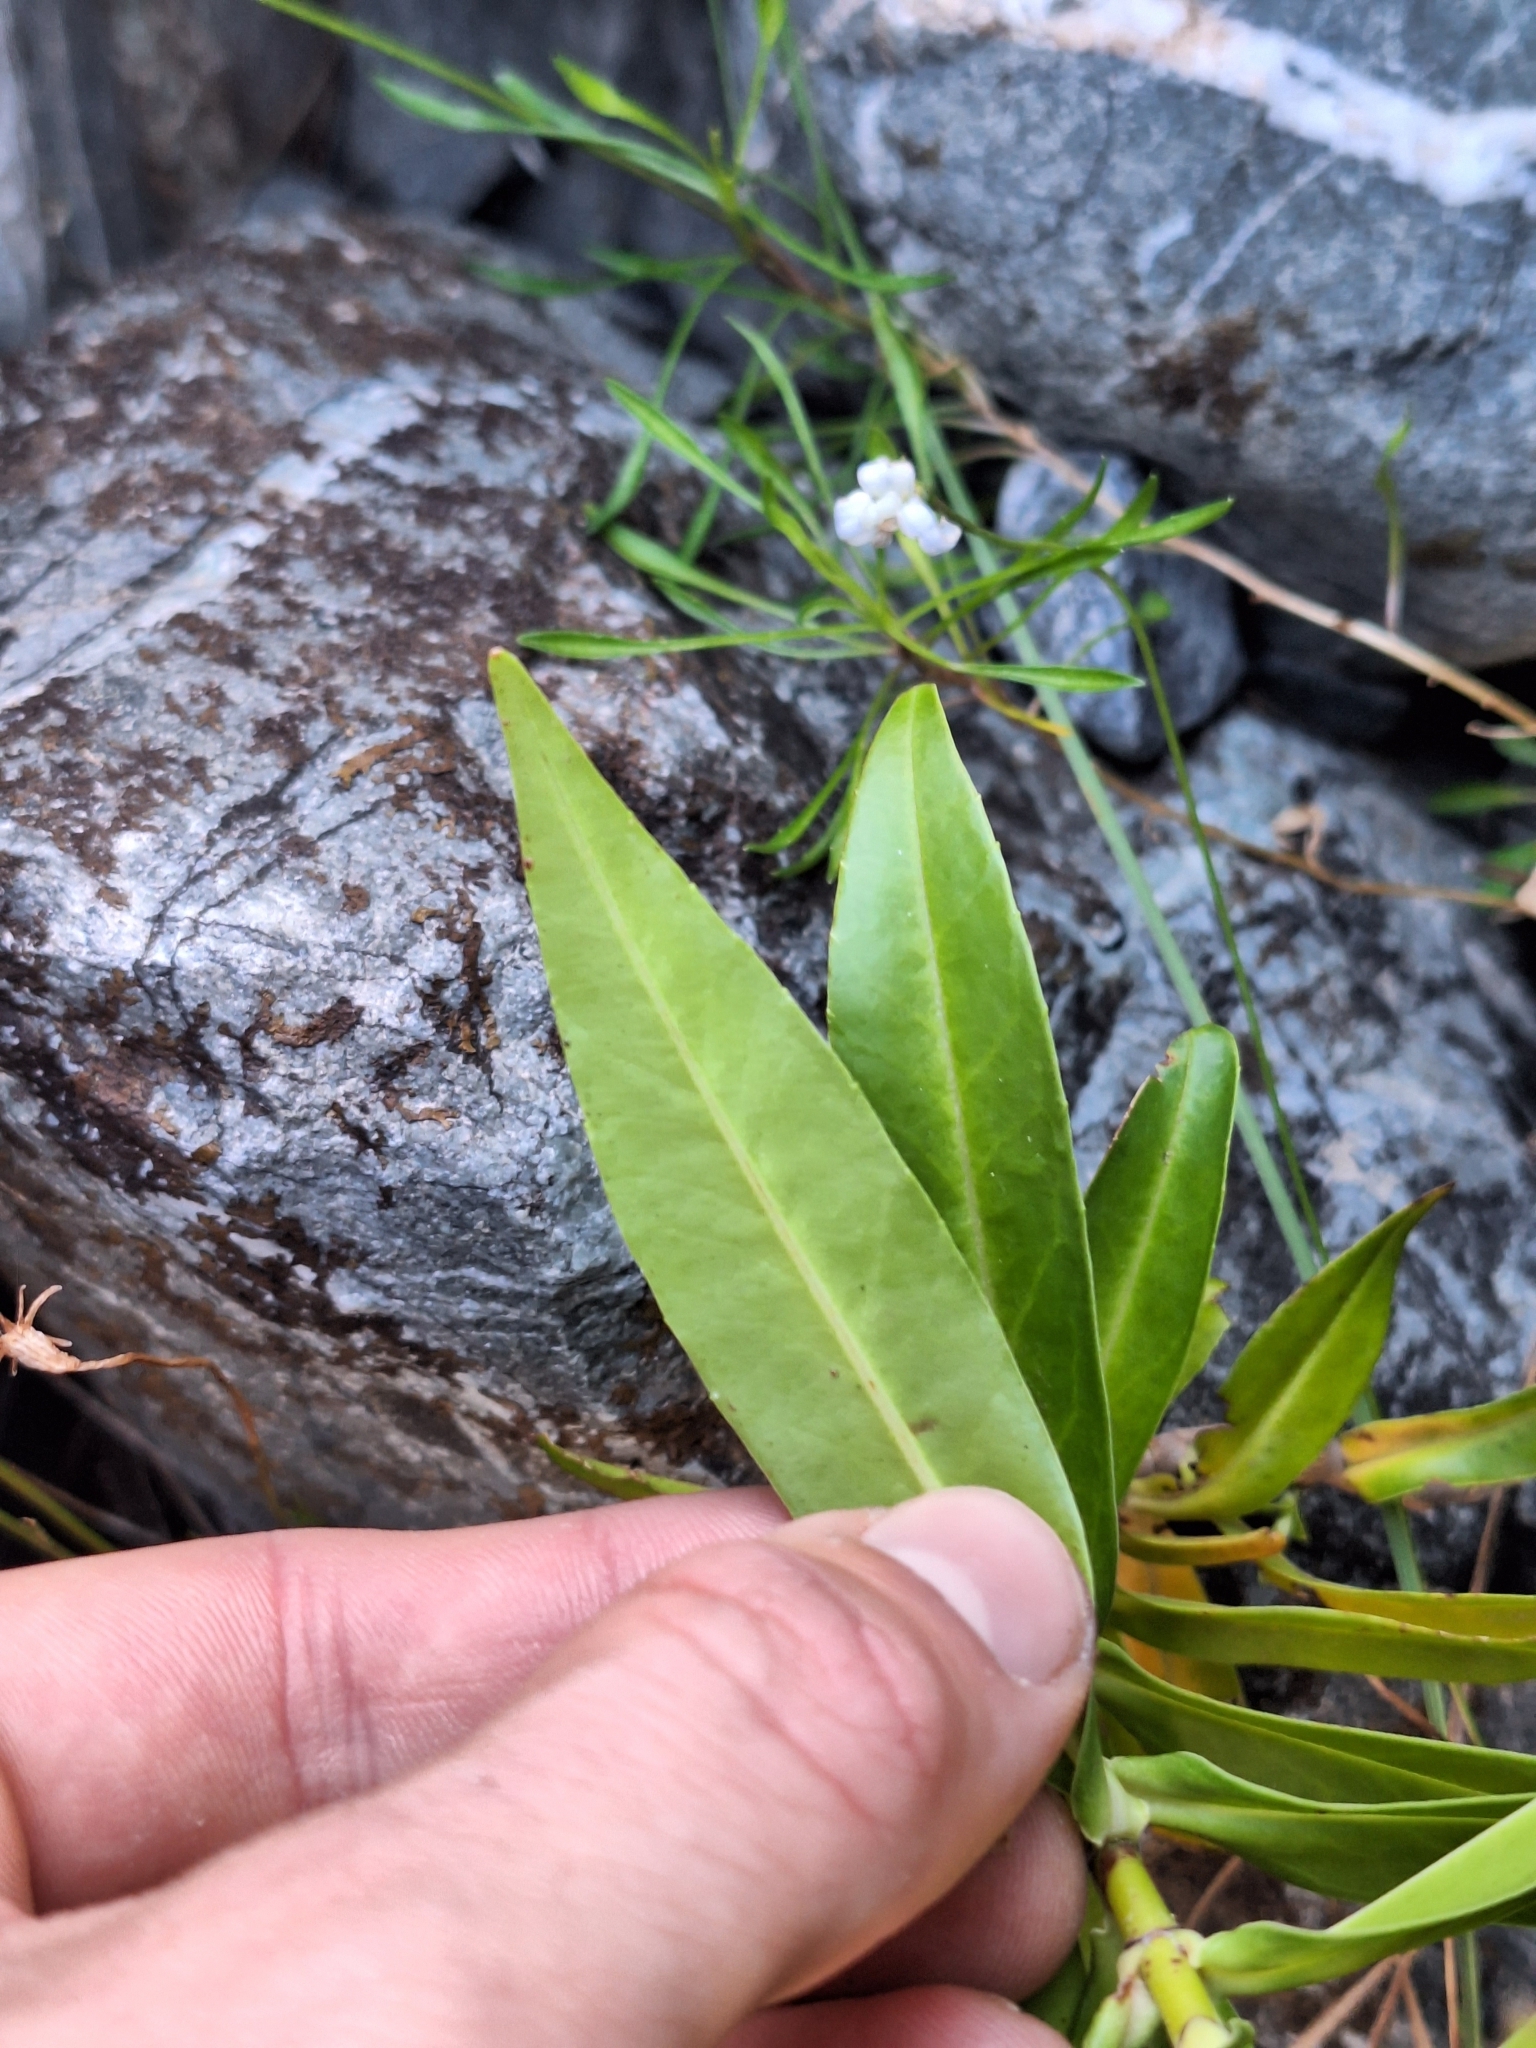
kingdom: Plantae
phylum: Tracheophyta
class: Magnoliopsida
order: Lamiales
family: Plantaginaceae
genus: Veronica
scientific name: Veronica salicifolia
